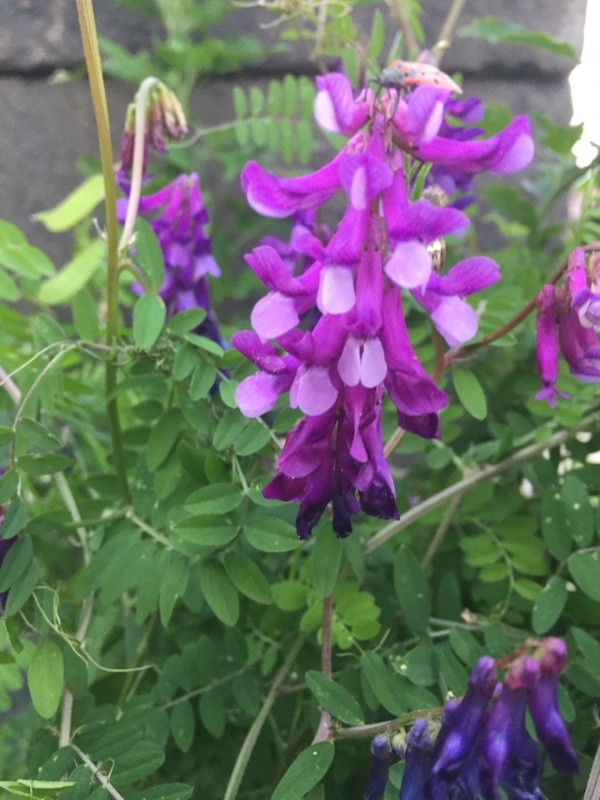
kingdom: Plantae
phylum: Tracheophyta
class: Magnoliopsida
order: Fabales
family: Fabaceae
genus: Vicia
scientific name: Vicia villosa
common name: Fodder vetch
